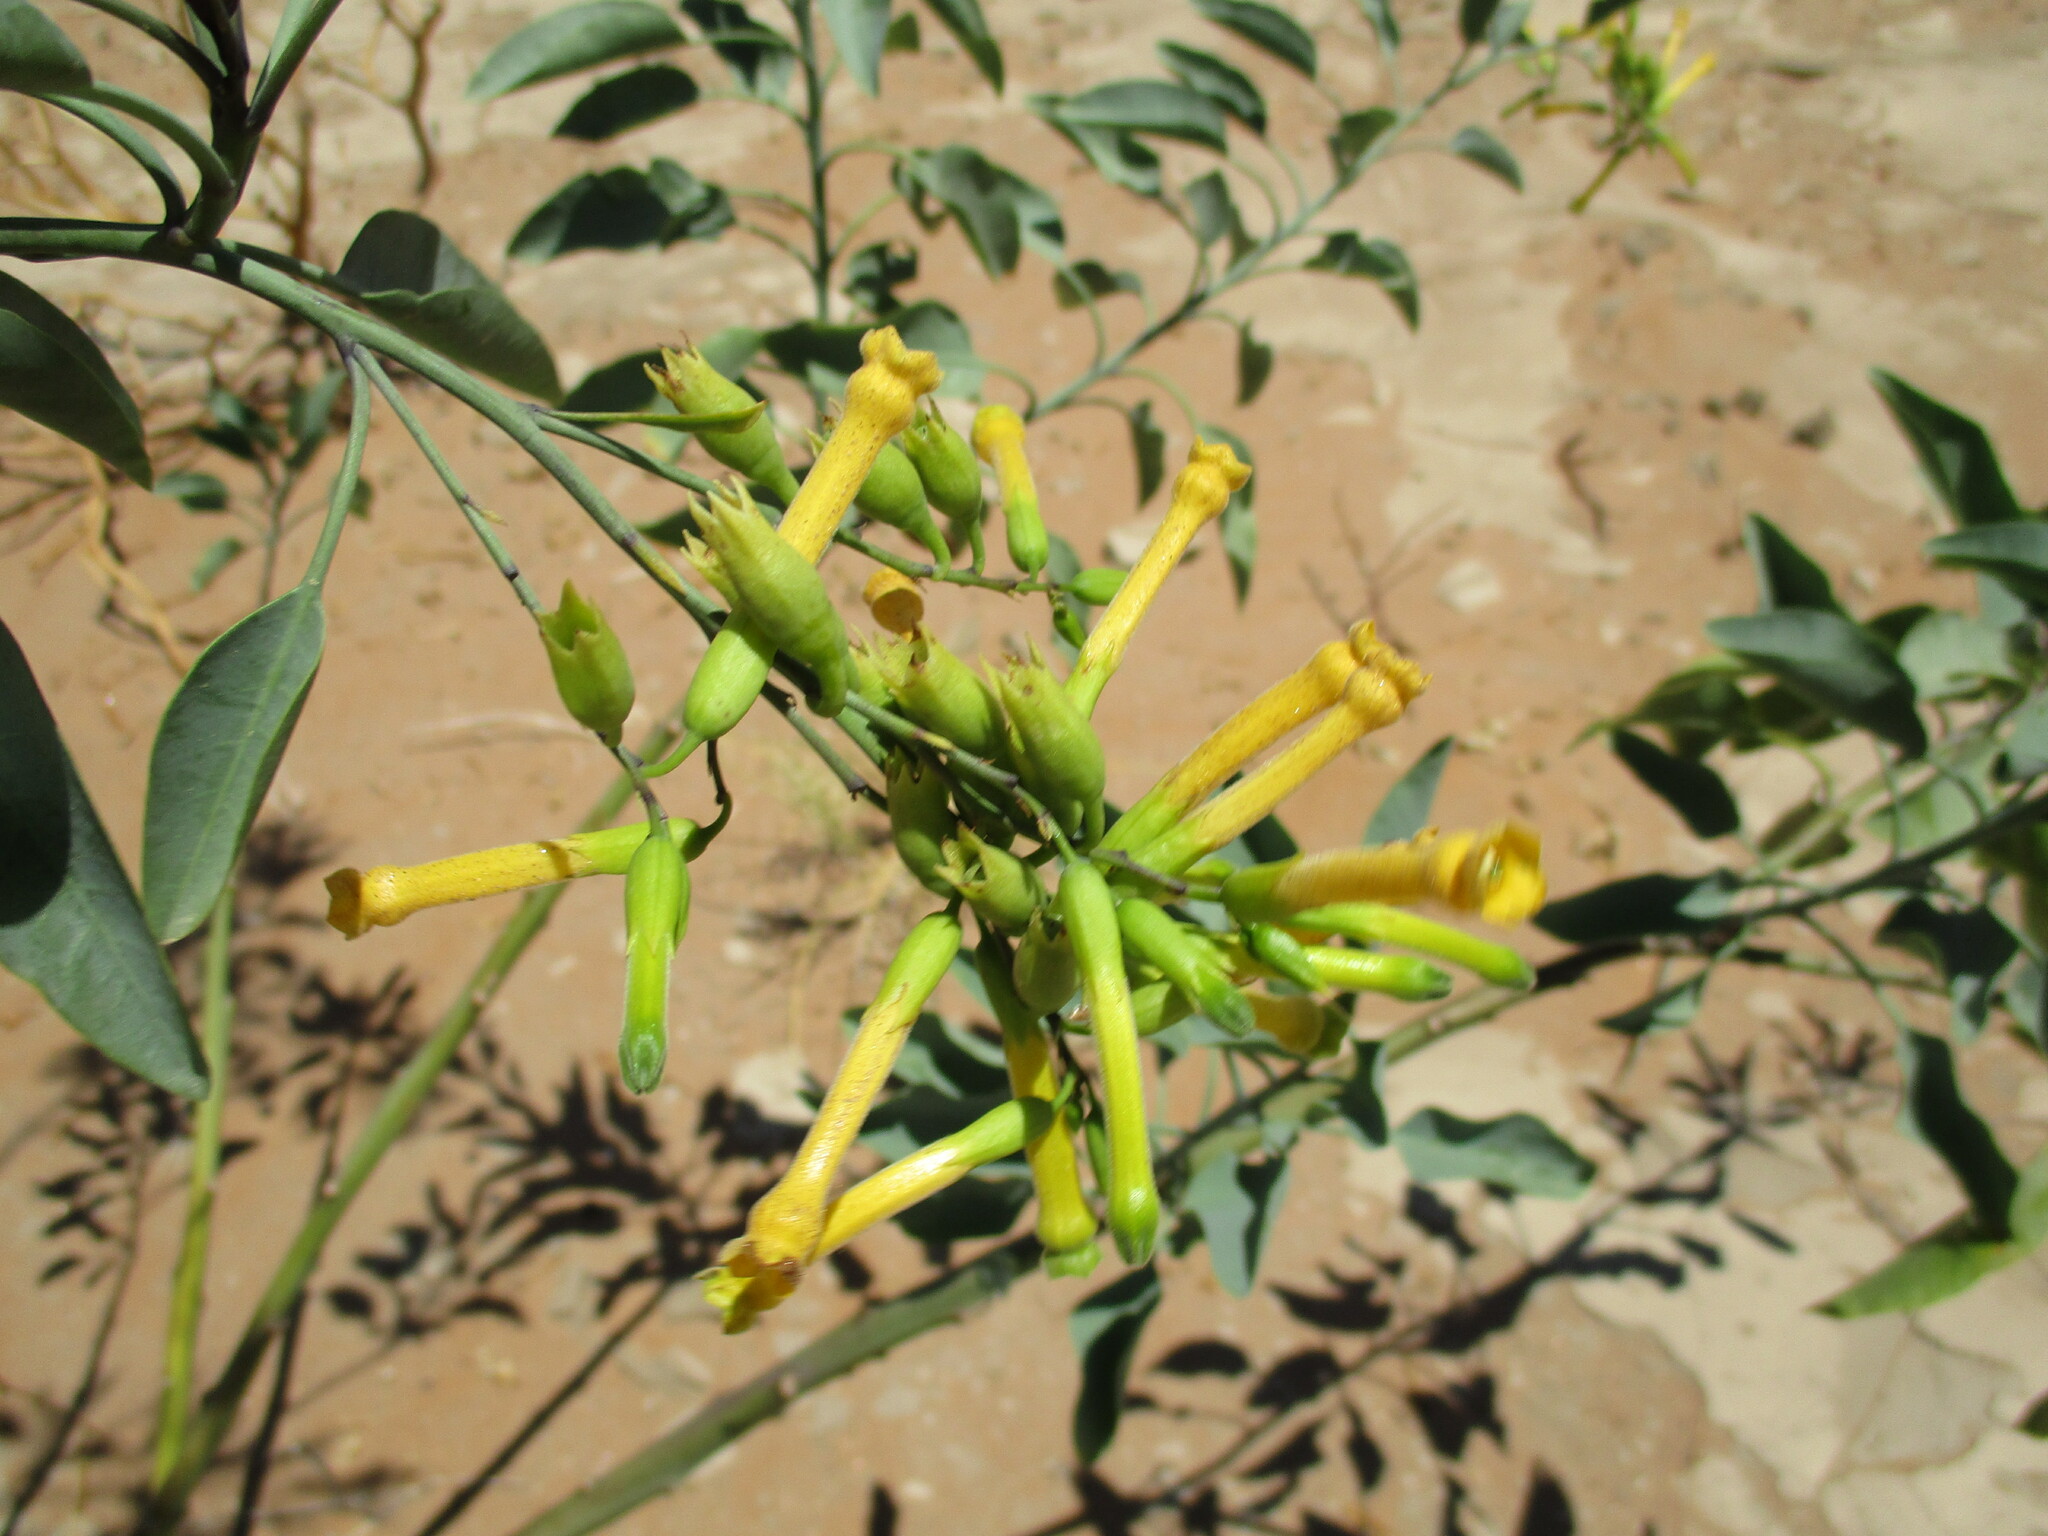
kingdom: Plantae
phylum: Tracheophyta
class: Magnoliopsida
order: Solanales
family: Solanaceae
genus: Nicotiana
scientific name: Nicotiana glauca
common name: Tree tobacco
